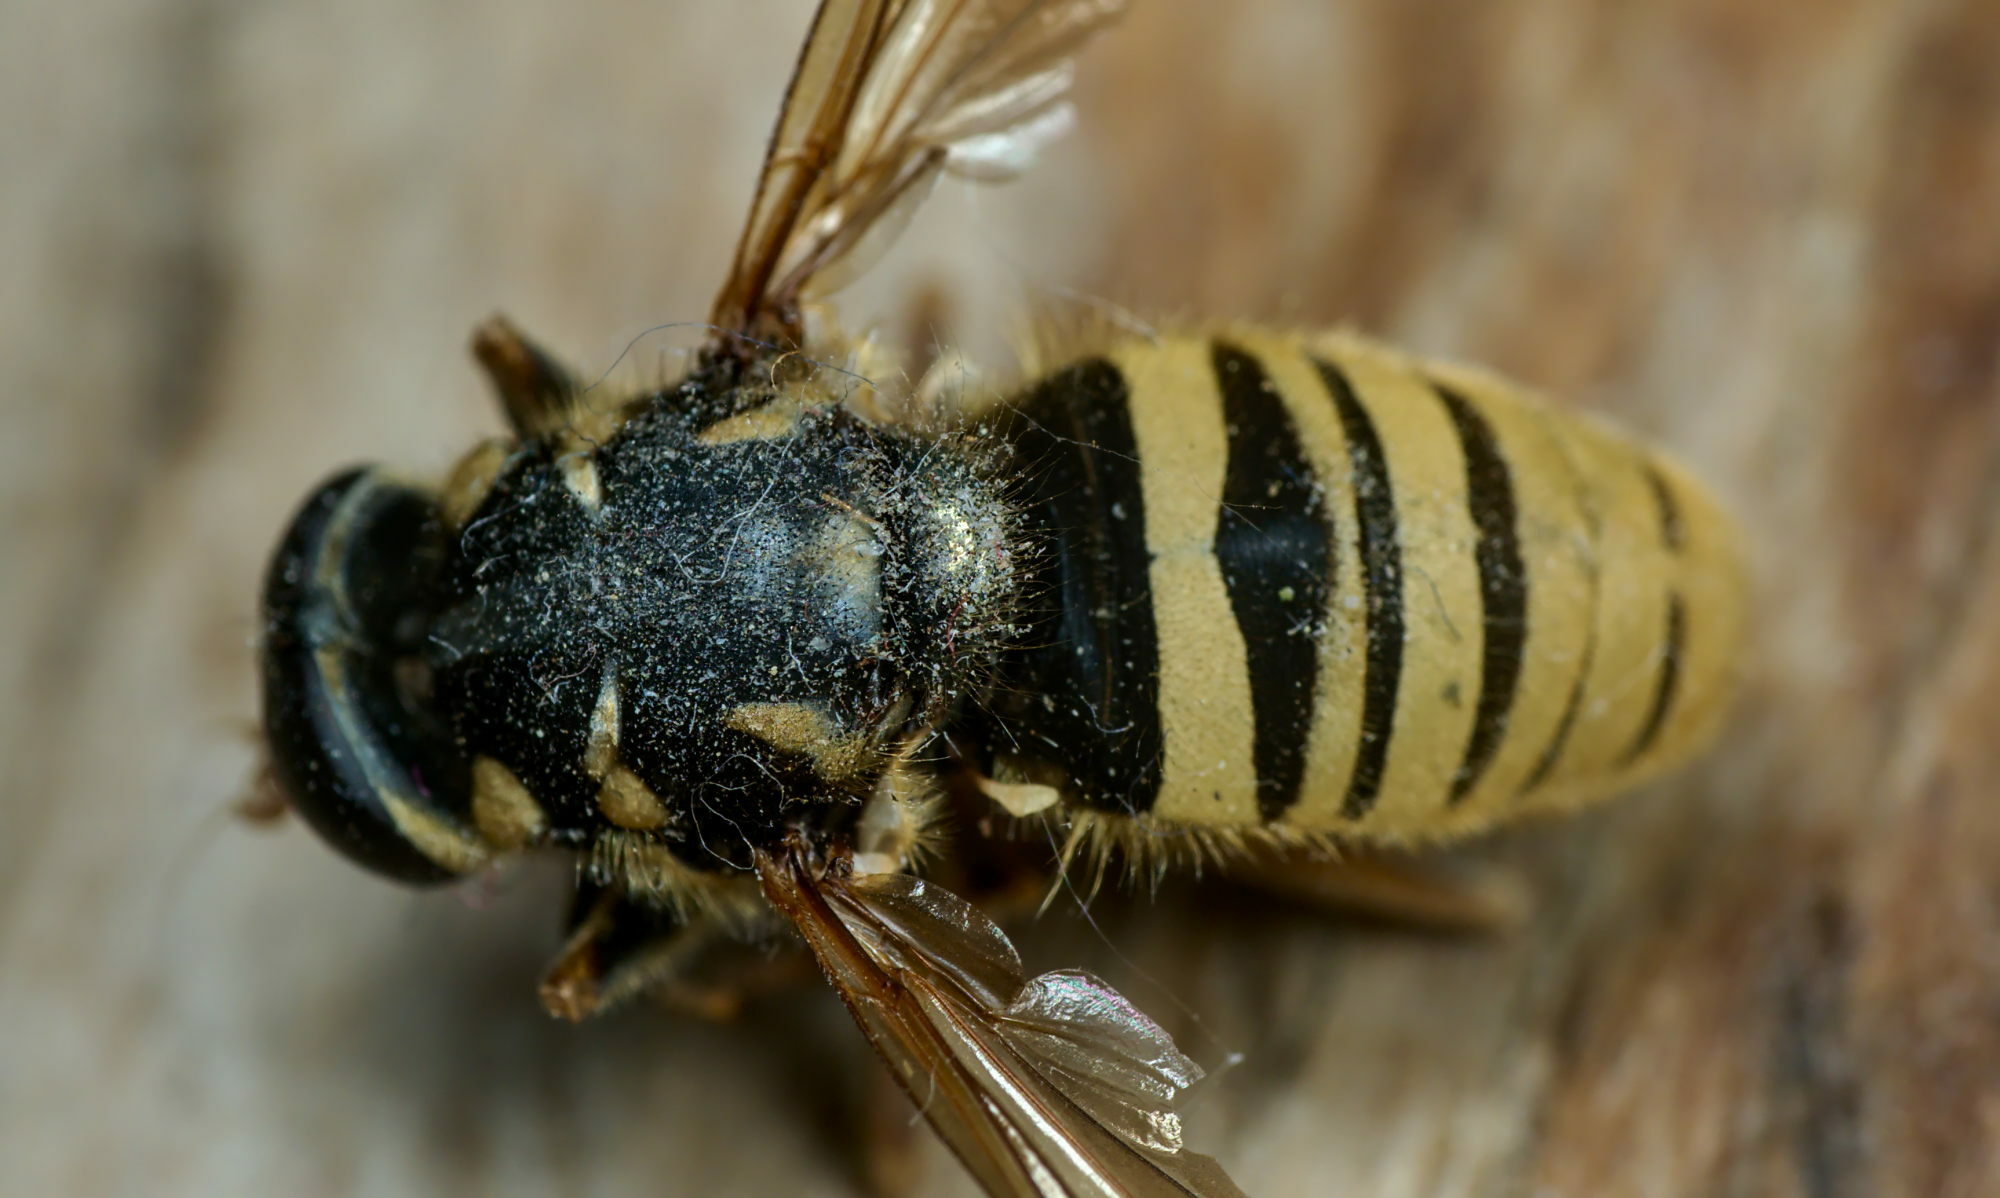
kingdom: Animalia
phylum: Arthropoda
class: Insecta
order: Diptera
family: Syrphidae
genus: Temnostoma
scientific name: Temnostoma vespiforme
